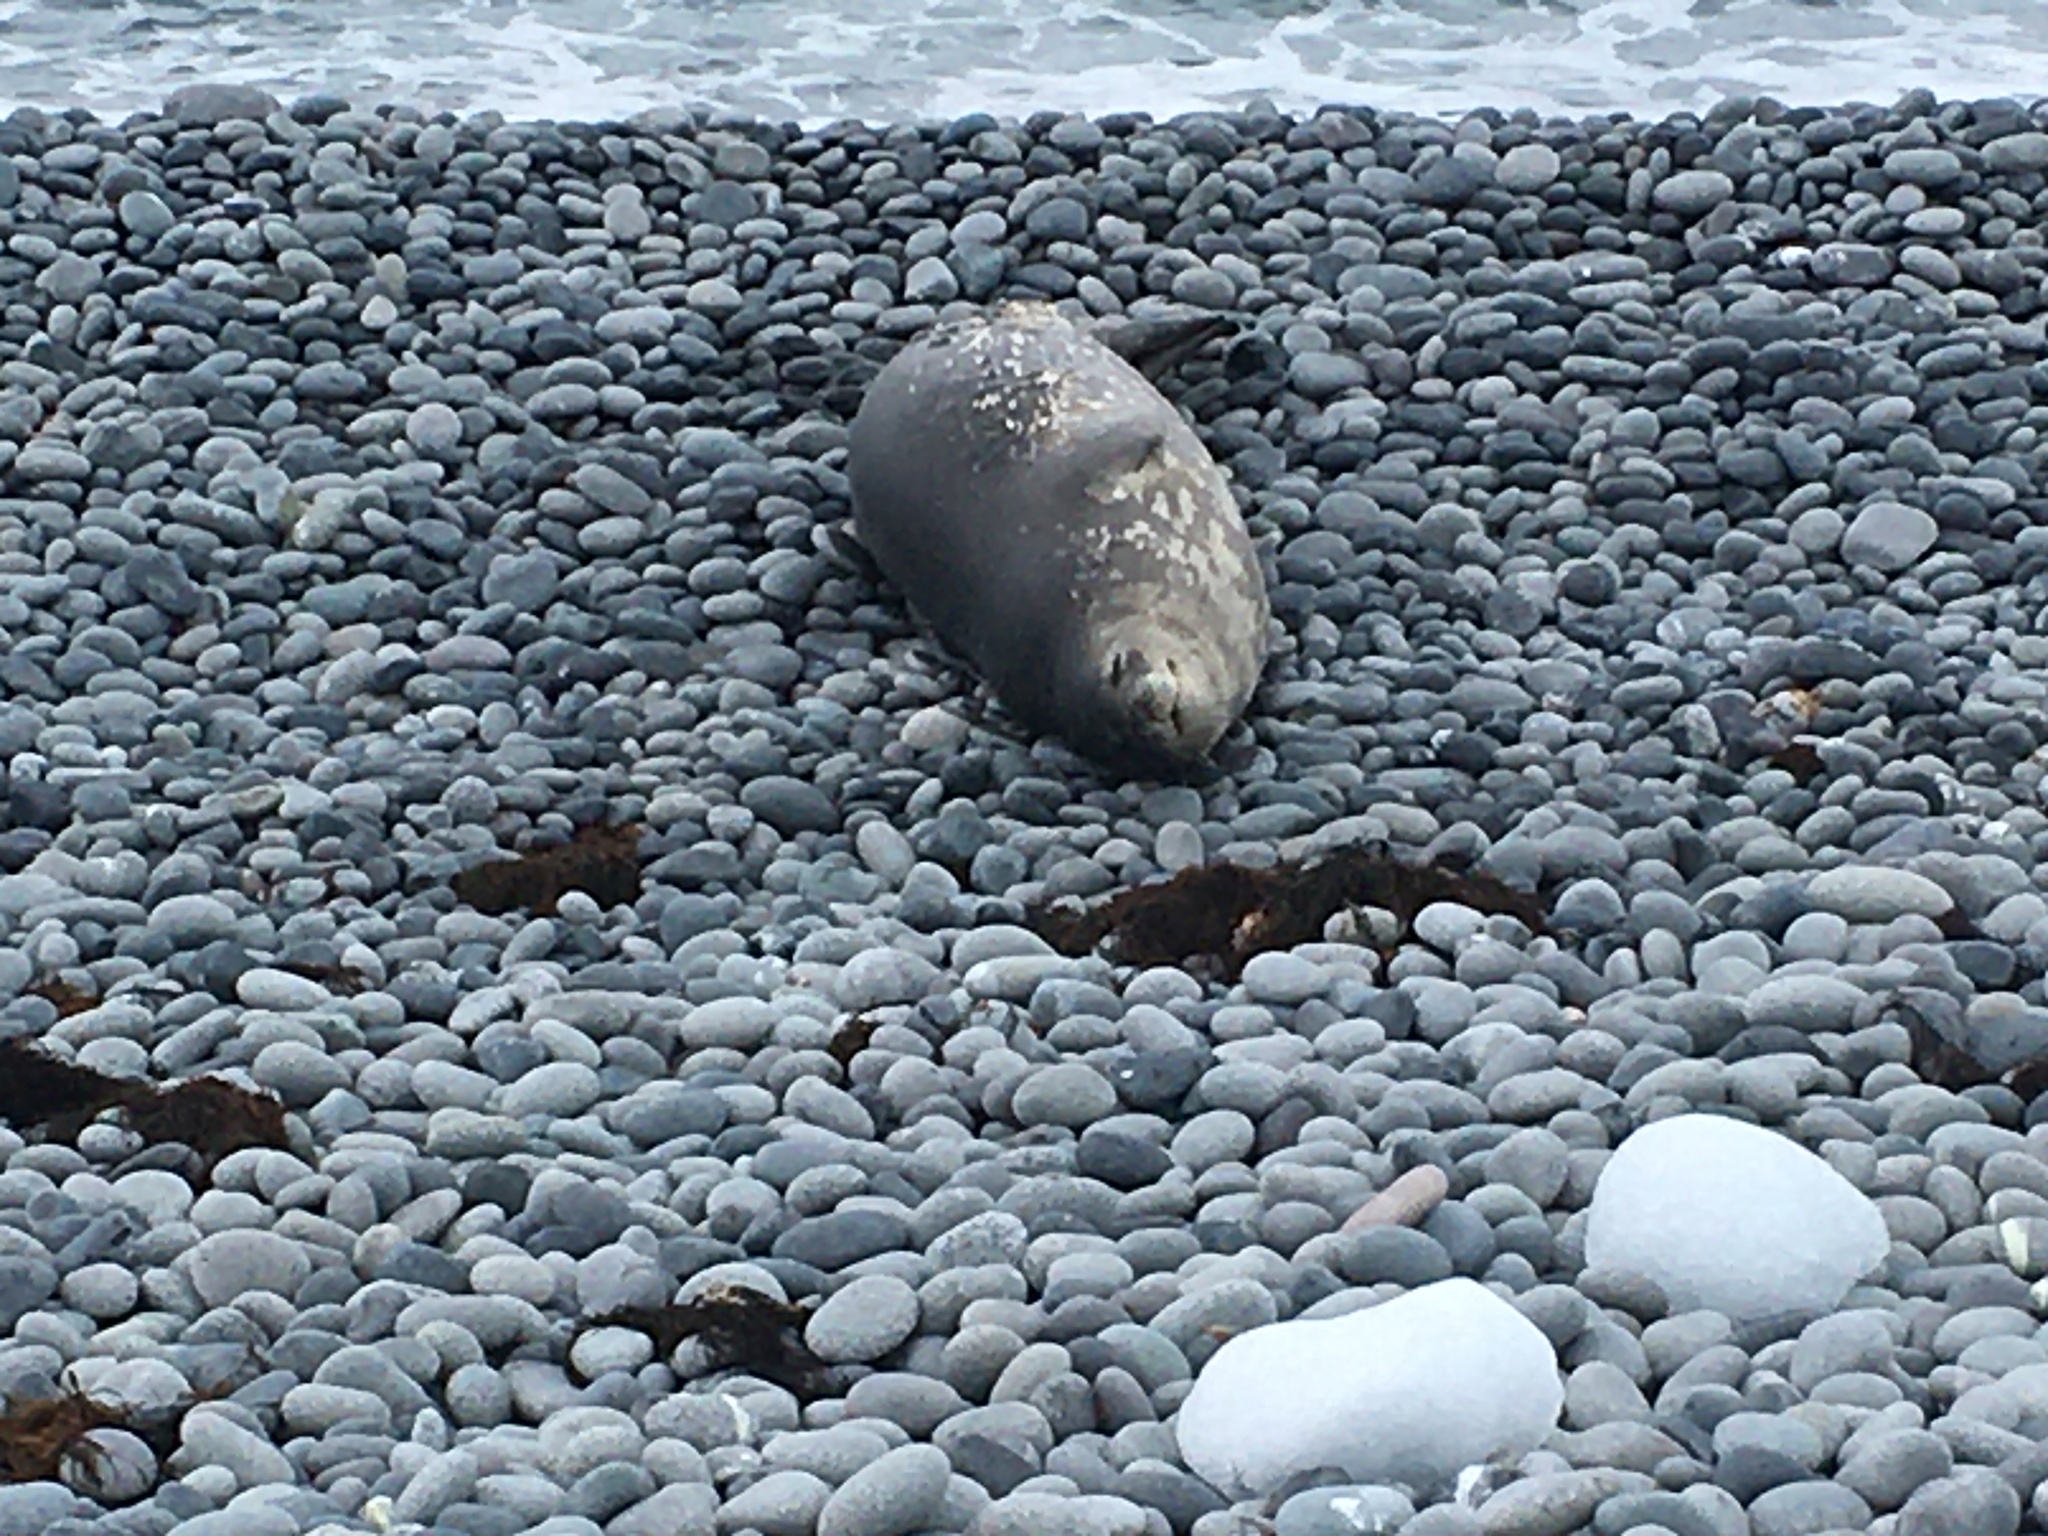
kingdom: Animalia
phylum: Chordata
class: Mammalia
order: Carnivora
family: Phocidae
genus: Leptonychotes
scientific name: Leptonychotes weddellii
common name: Weddell seal
